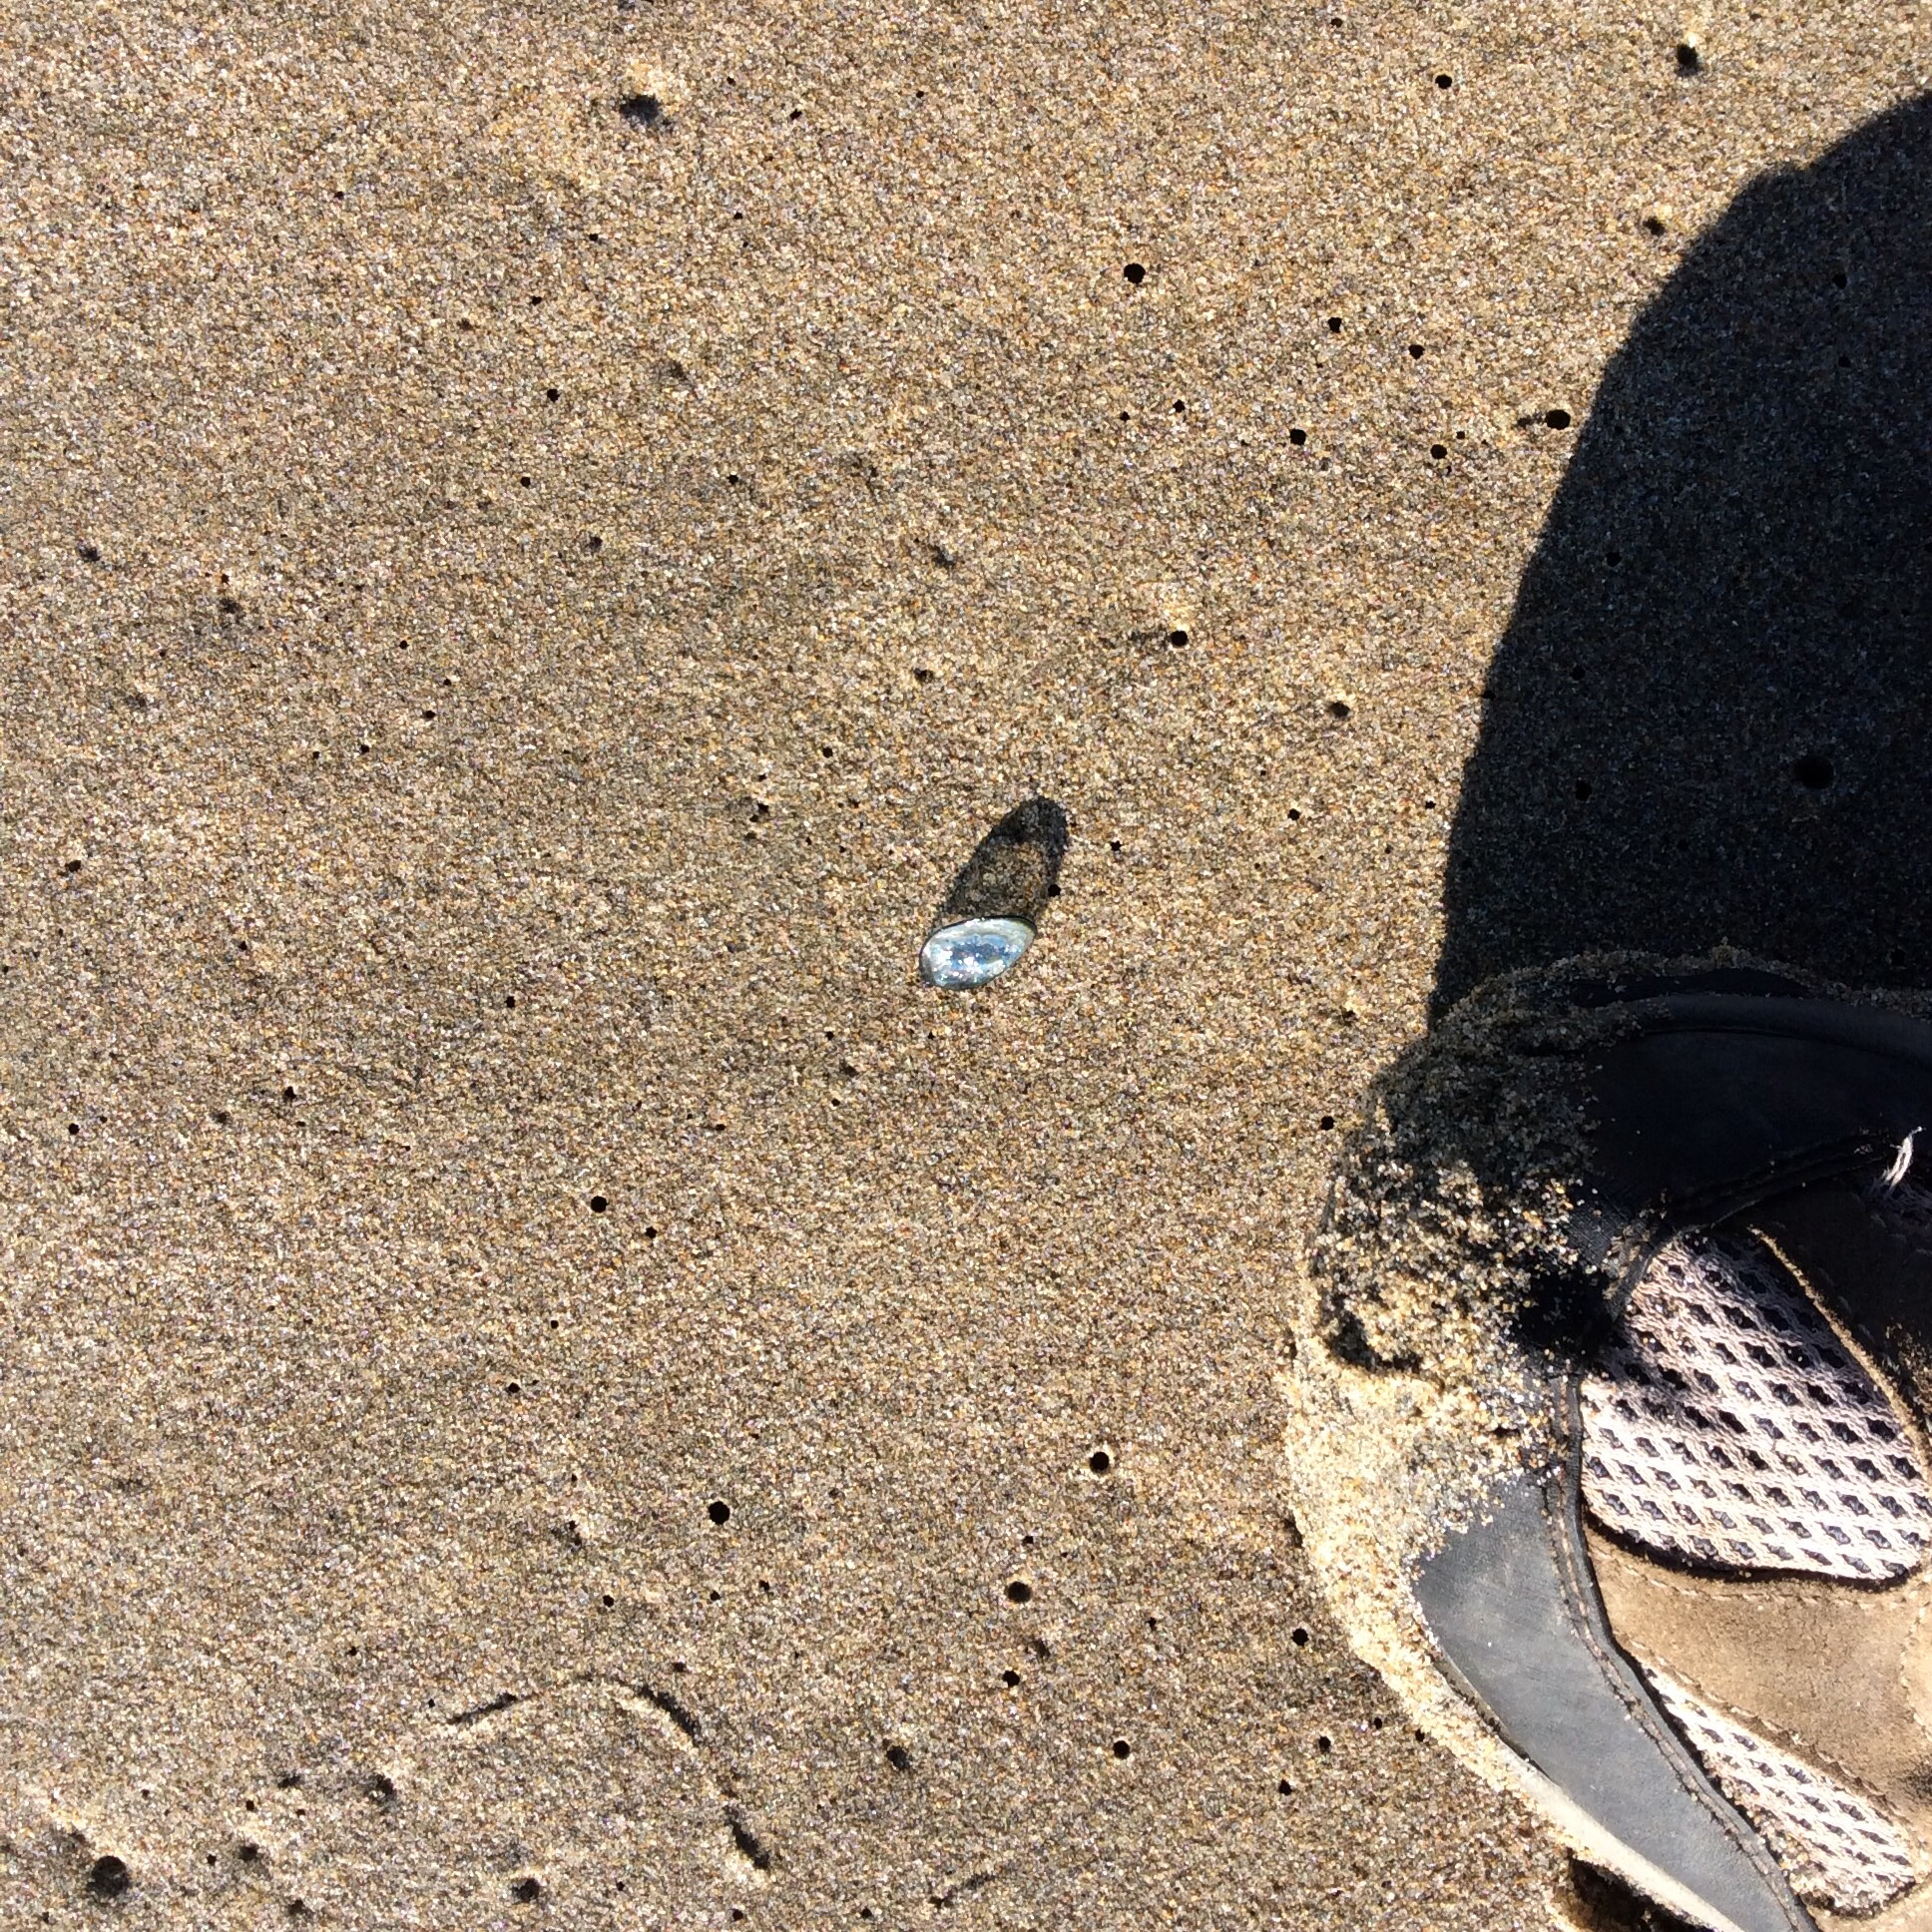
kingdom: Animalia
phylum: Cnidaria
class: Hydrozoa
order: Anthoathecata
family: Porpitidae
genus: Velella
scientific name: Velella velella
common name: By-the-wind-sailor
